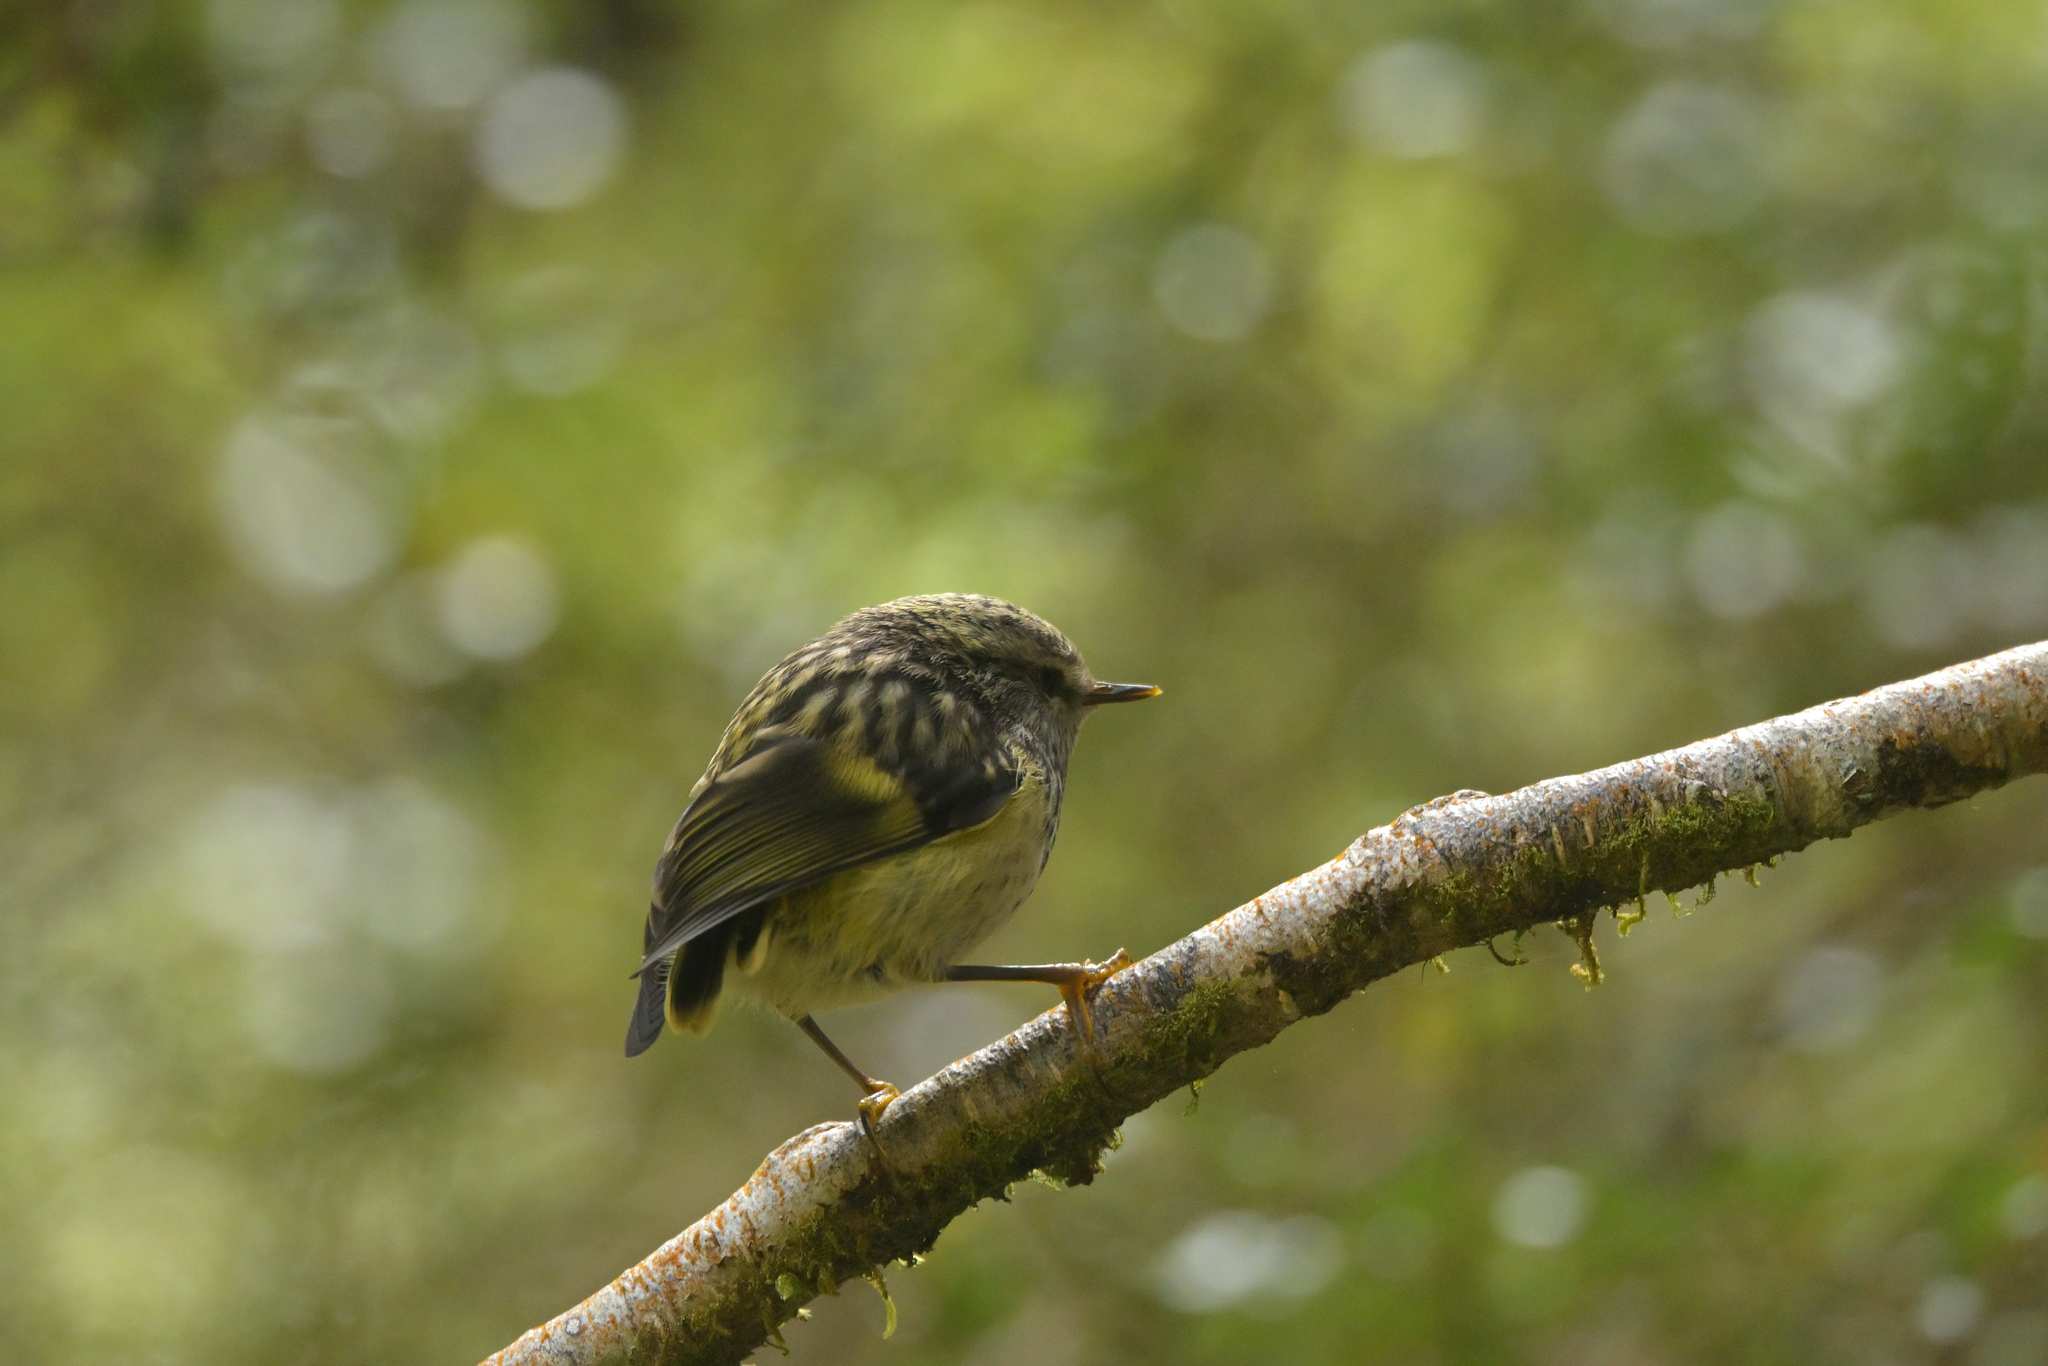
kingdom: Animalia
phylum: Chordata
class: Aves
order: Passeriformes
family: Acanthisittidae
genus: Acanthisitta
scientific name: Acanthisitta chloris
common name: Rifleman
